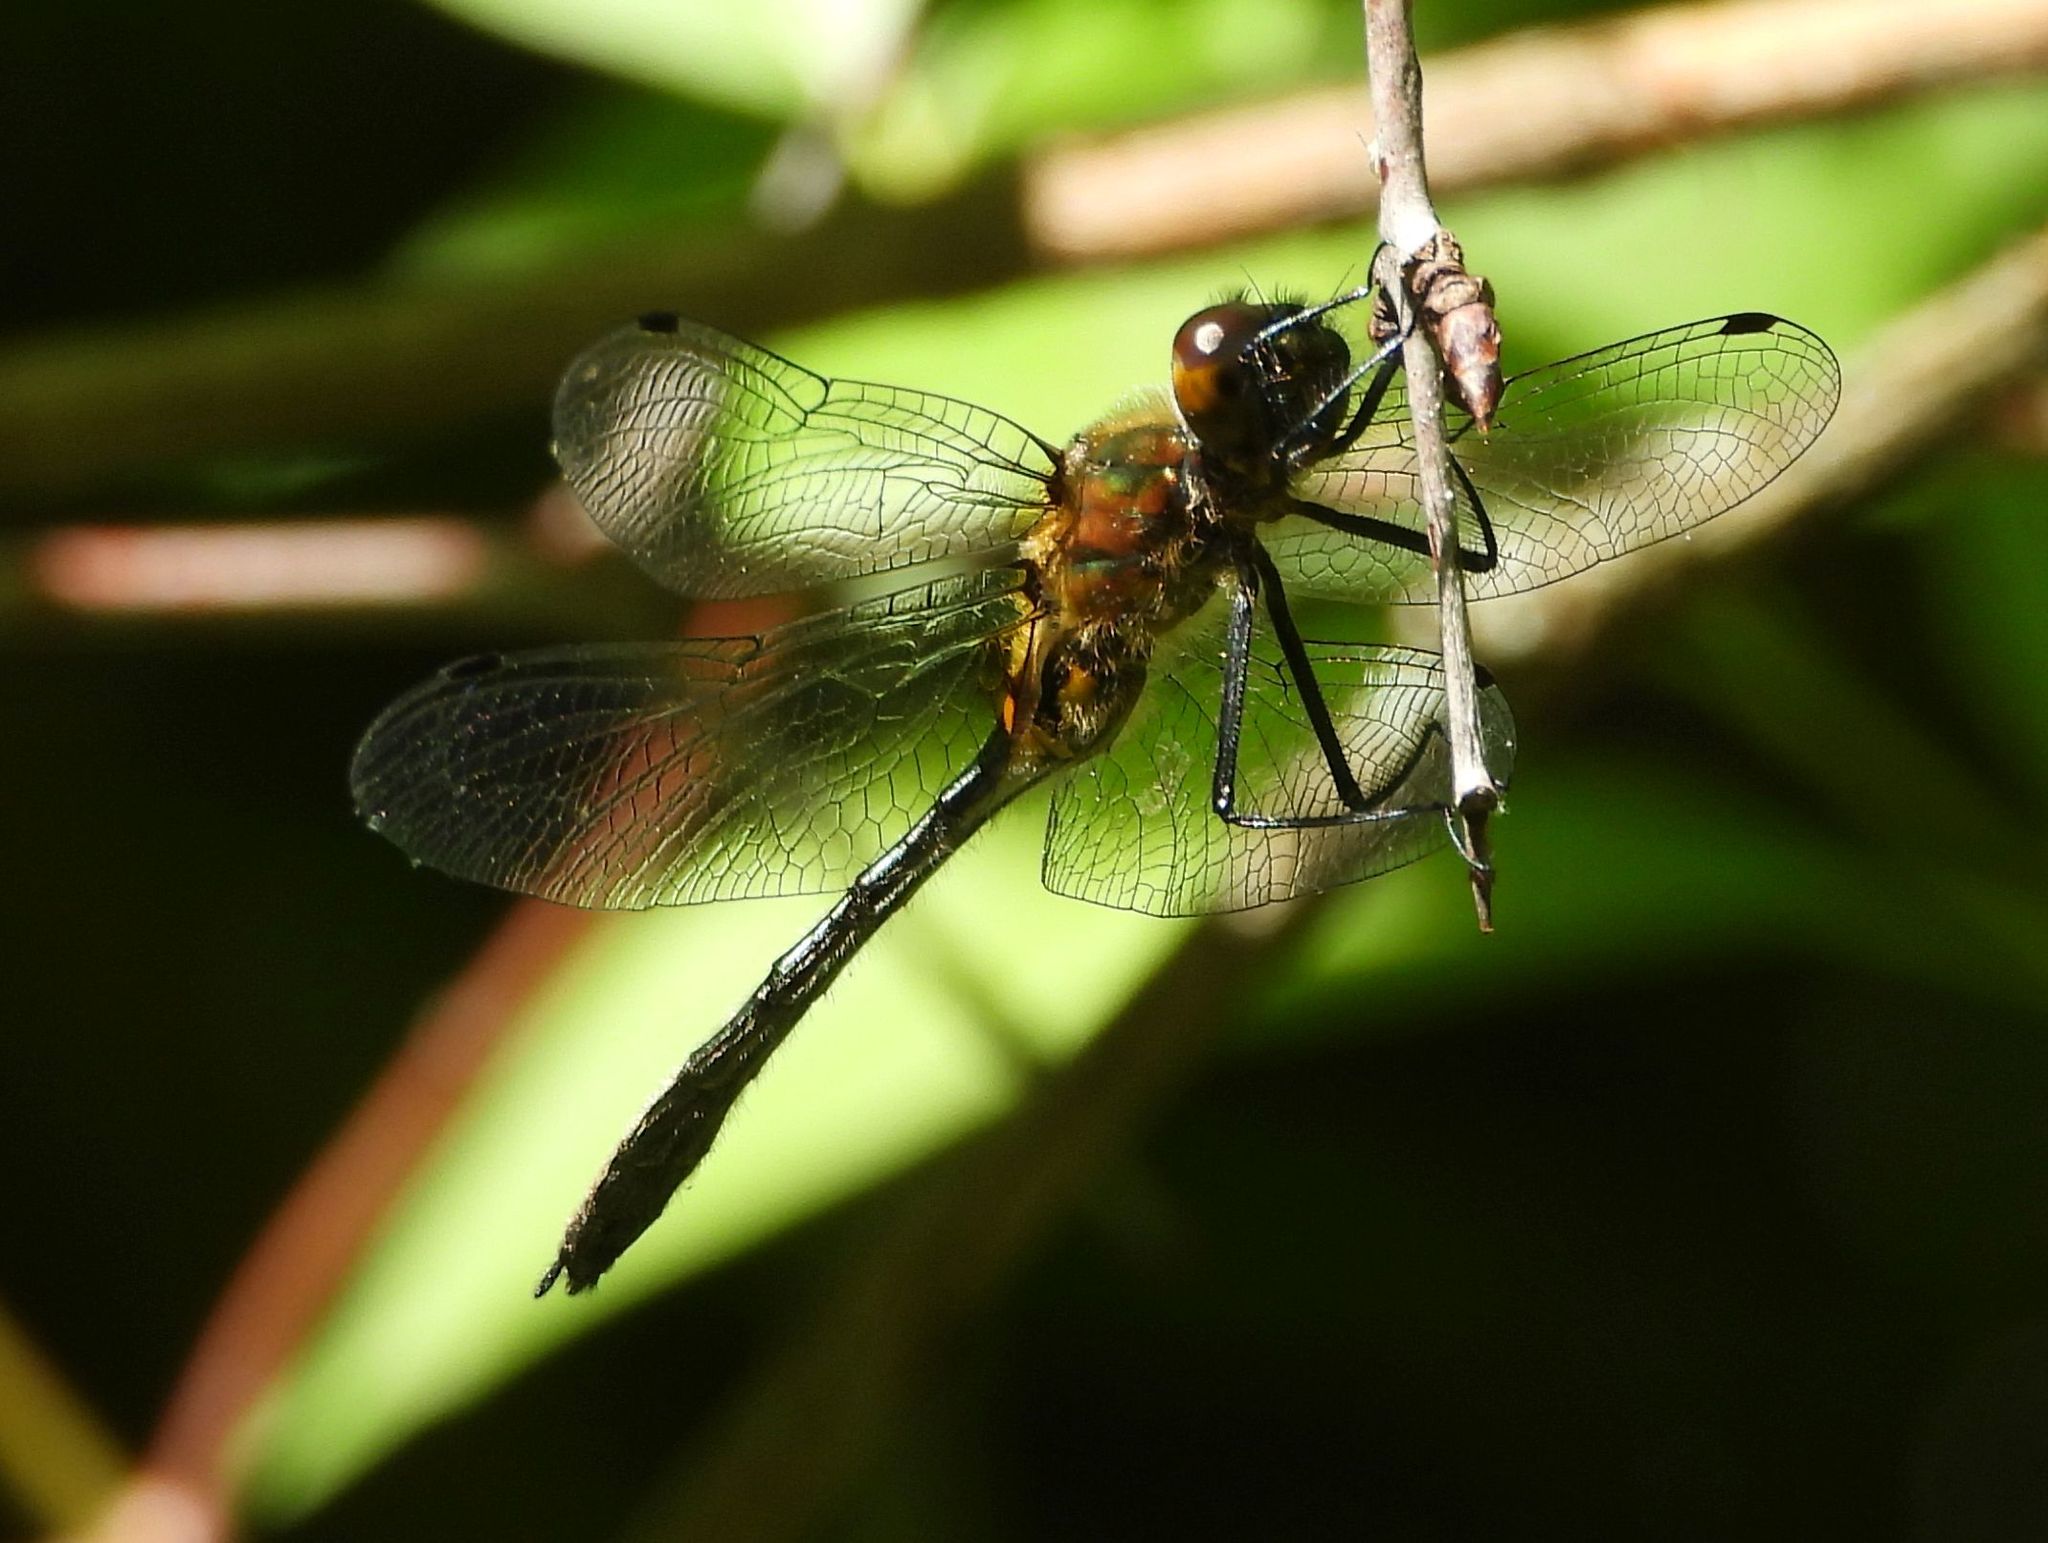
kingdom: Animalia
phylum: Arthropoda
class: Insecta
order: Odonata
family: Corduliidae
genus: Dorocordulia
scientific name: Dorocordulia libera
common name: Racket-tailed emerald
